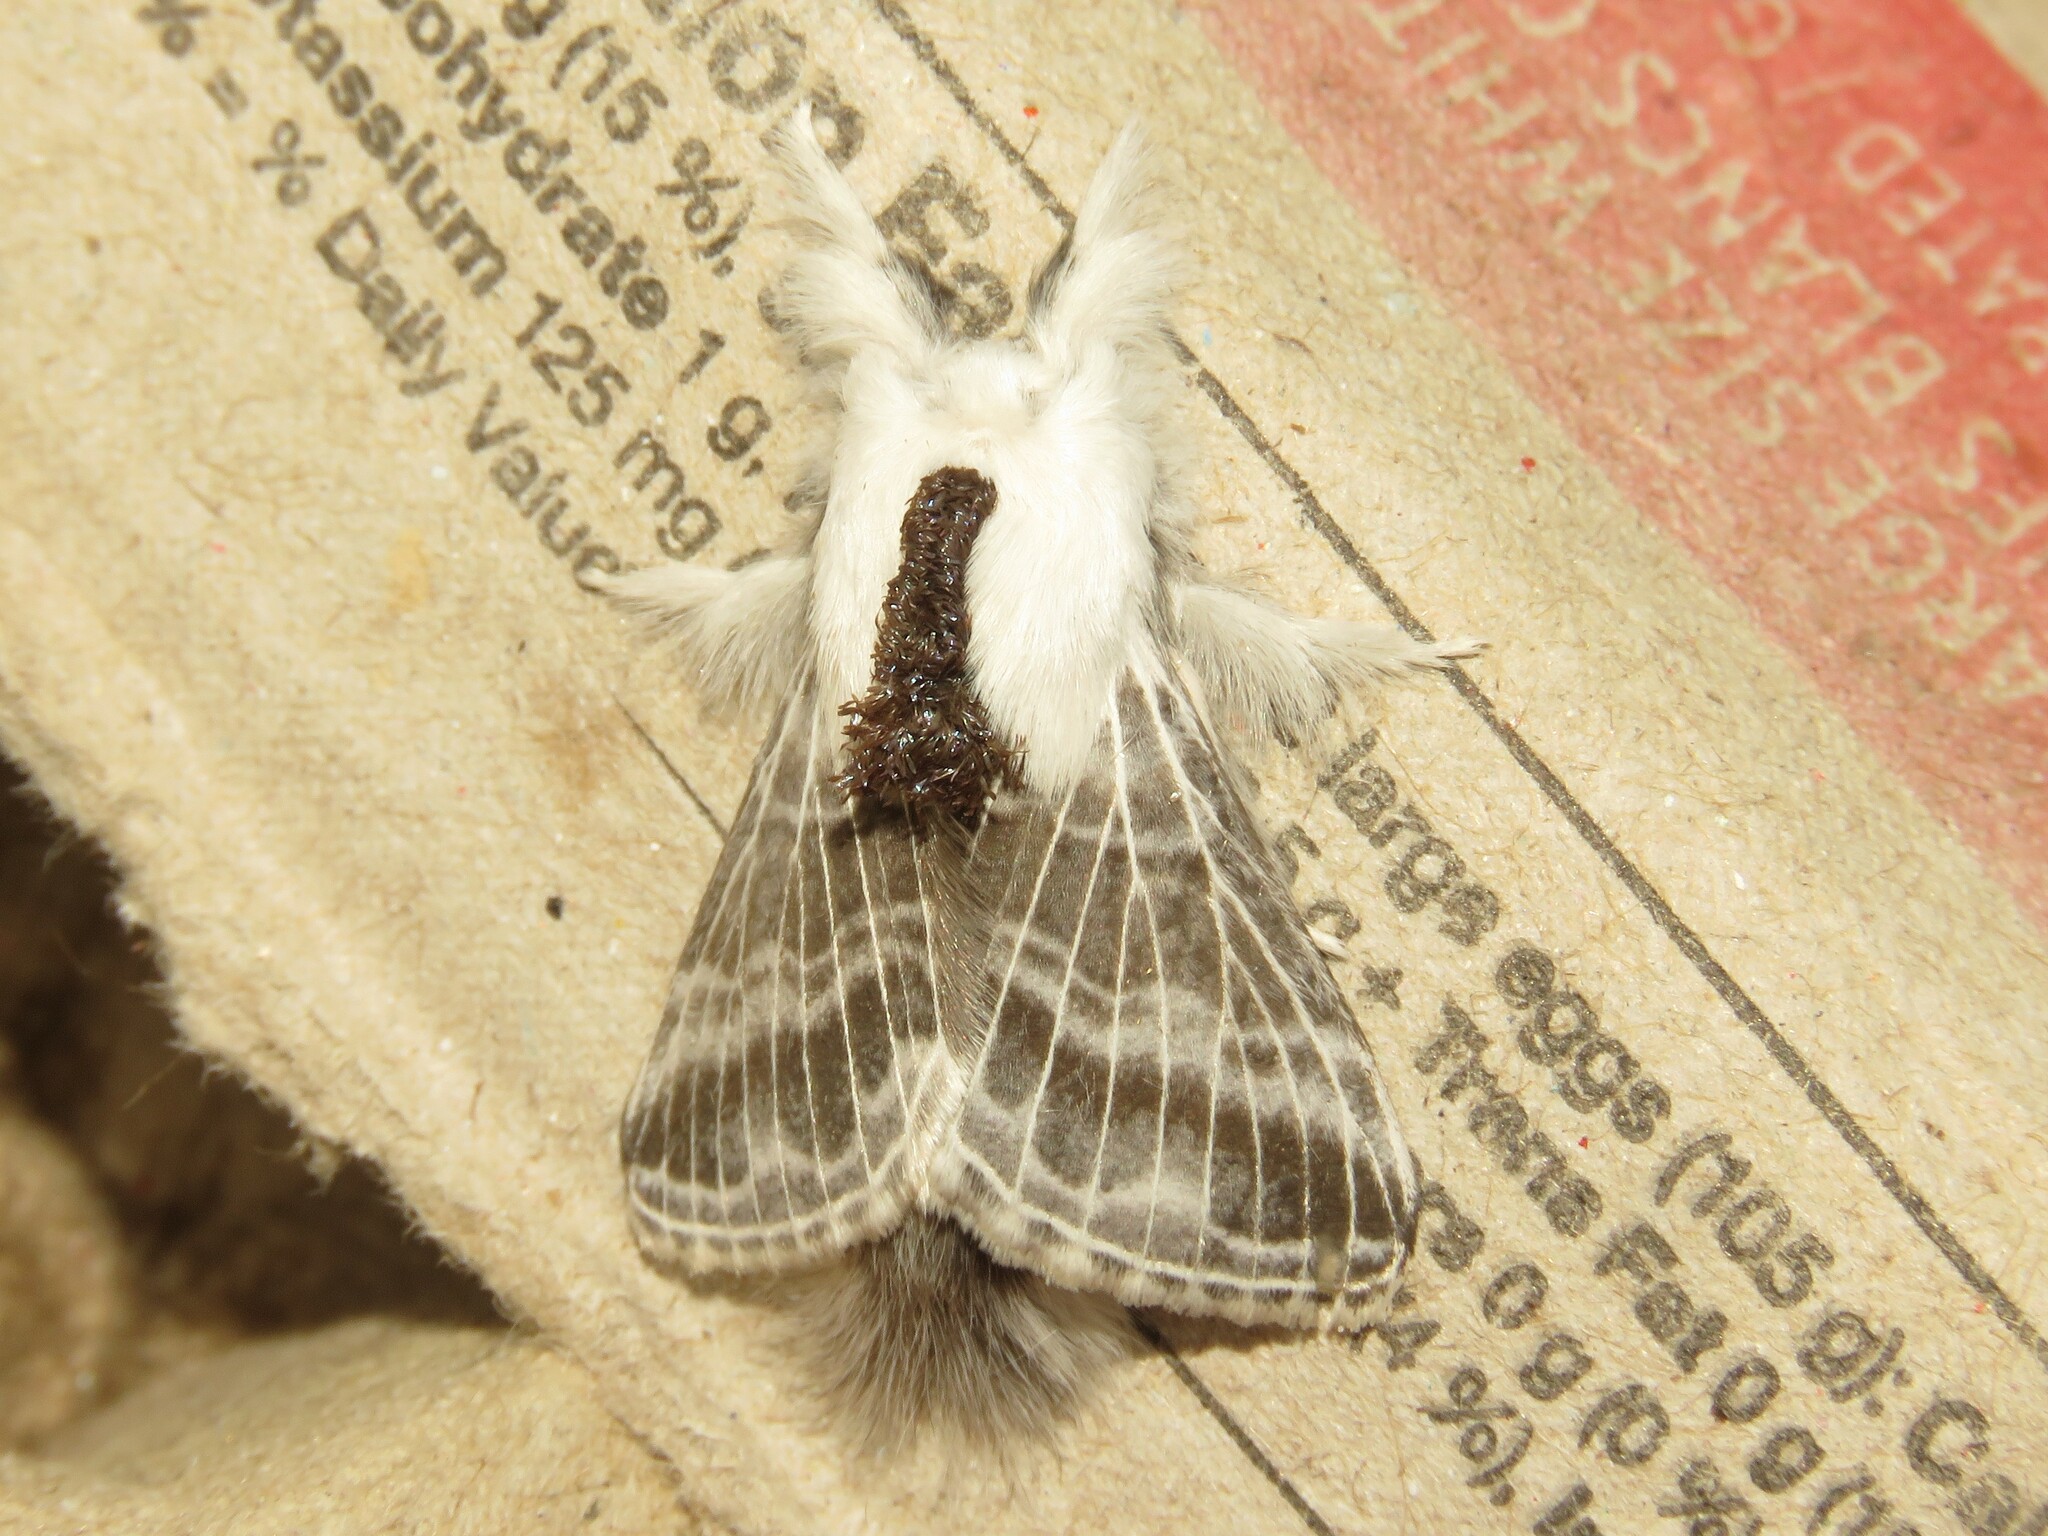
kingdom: Animalia
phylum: Arthropoda
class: Insecta
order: Lepidoptera
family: Lasiocampidae
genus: Tolype
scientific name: Tolype velleda
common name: Large tolype moth
